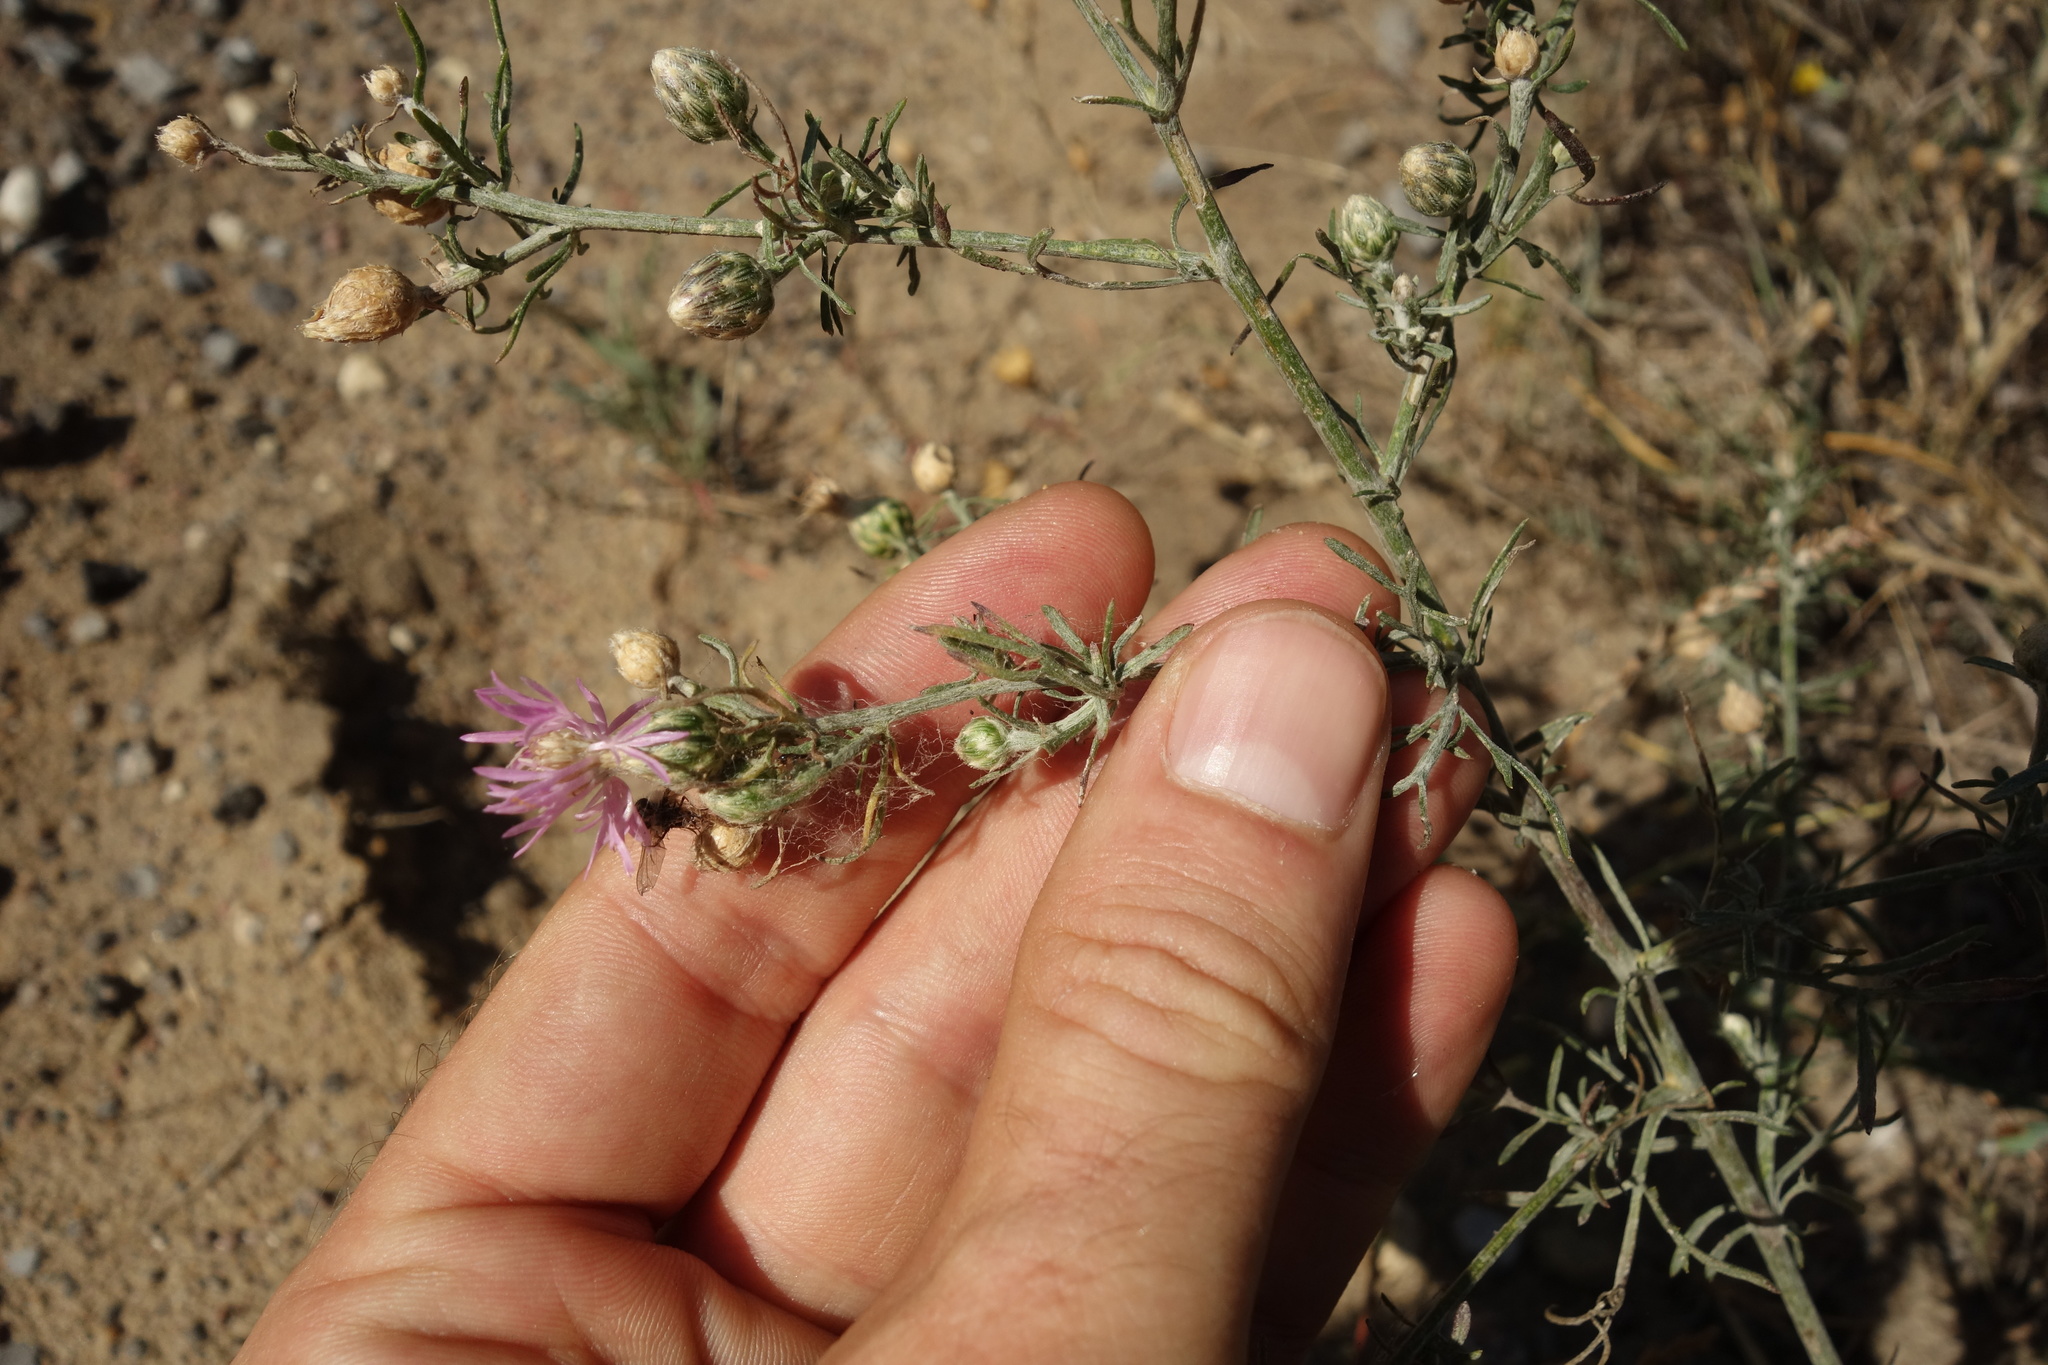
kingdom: Plantae
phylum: Tracheophyta
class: Magnoliopsida
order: Asterales
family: Asteraceae
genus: Centaurea
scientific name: Centaurea arenaria
